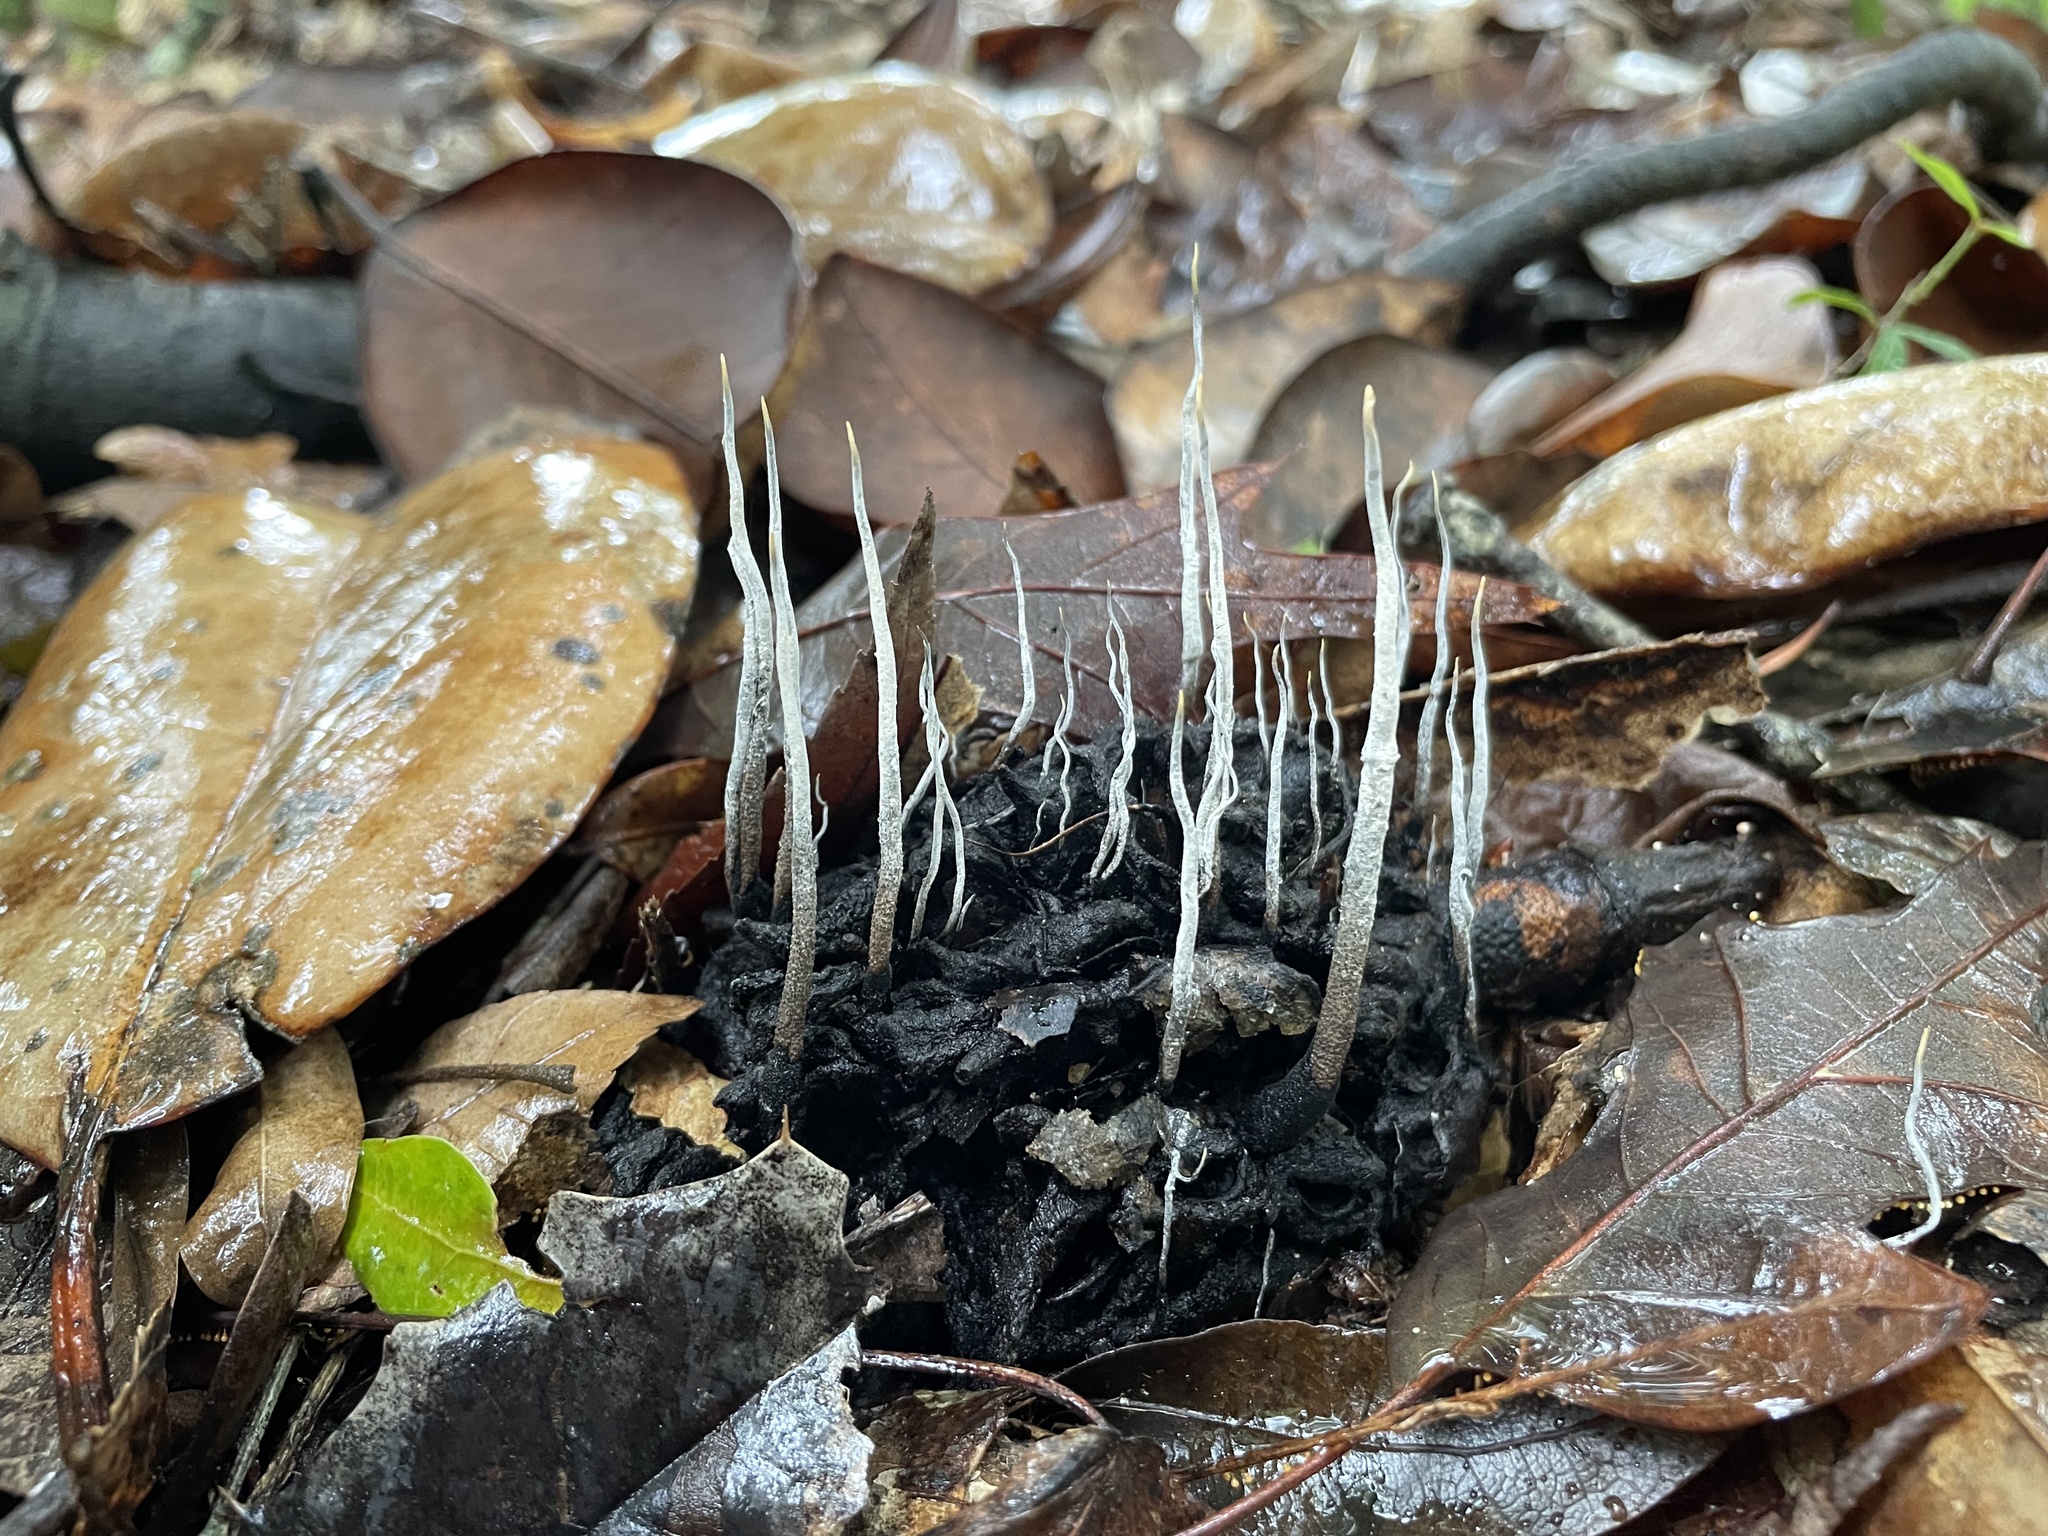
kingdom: Fungi
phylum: Ascomycota
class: Sordariomycetes
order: Xylariales
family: Xylariaceae
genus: Xylaria
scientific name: Xylaria magnoliae
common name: Magnolia-cone xylaria
